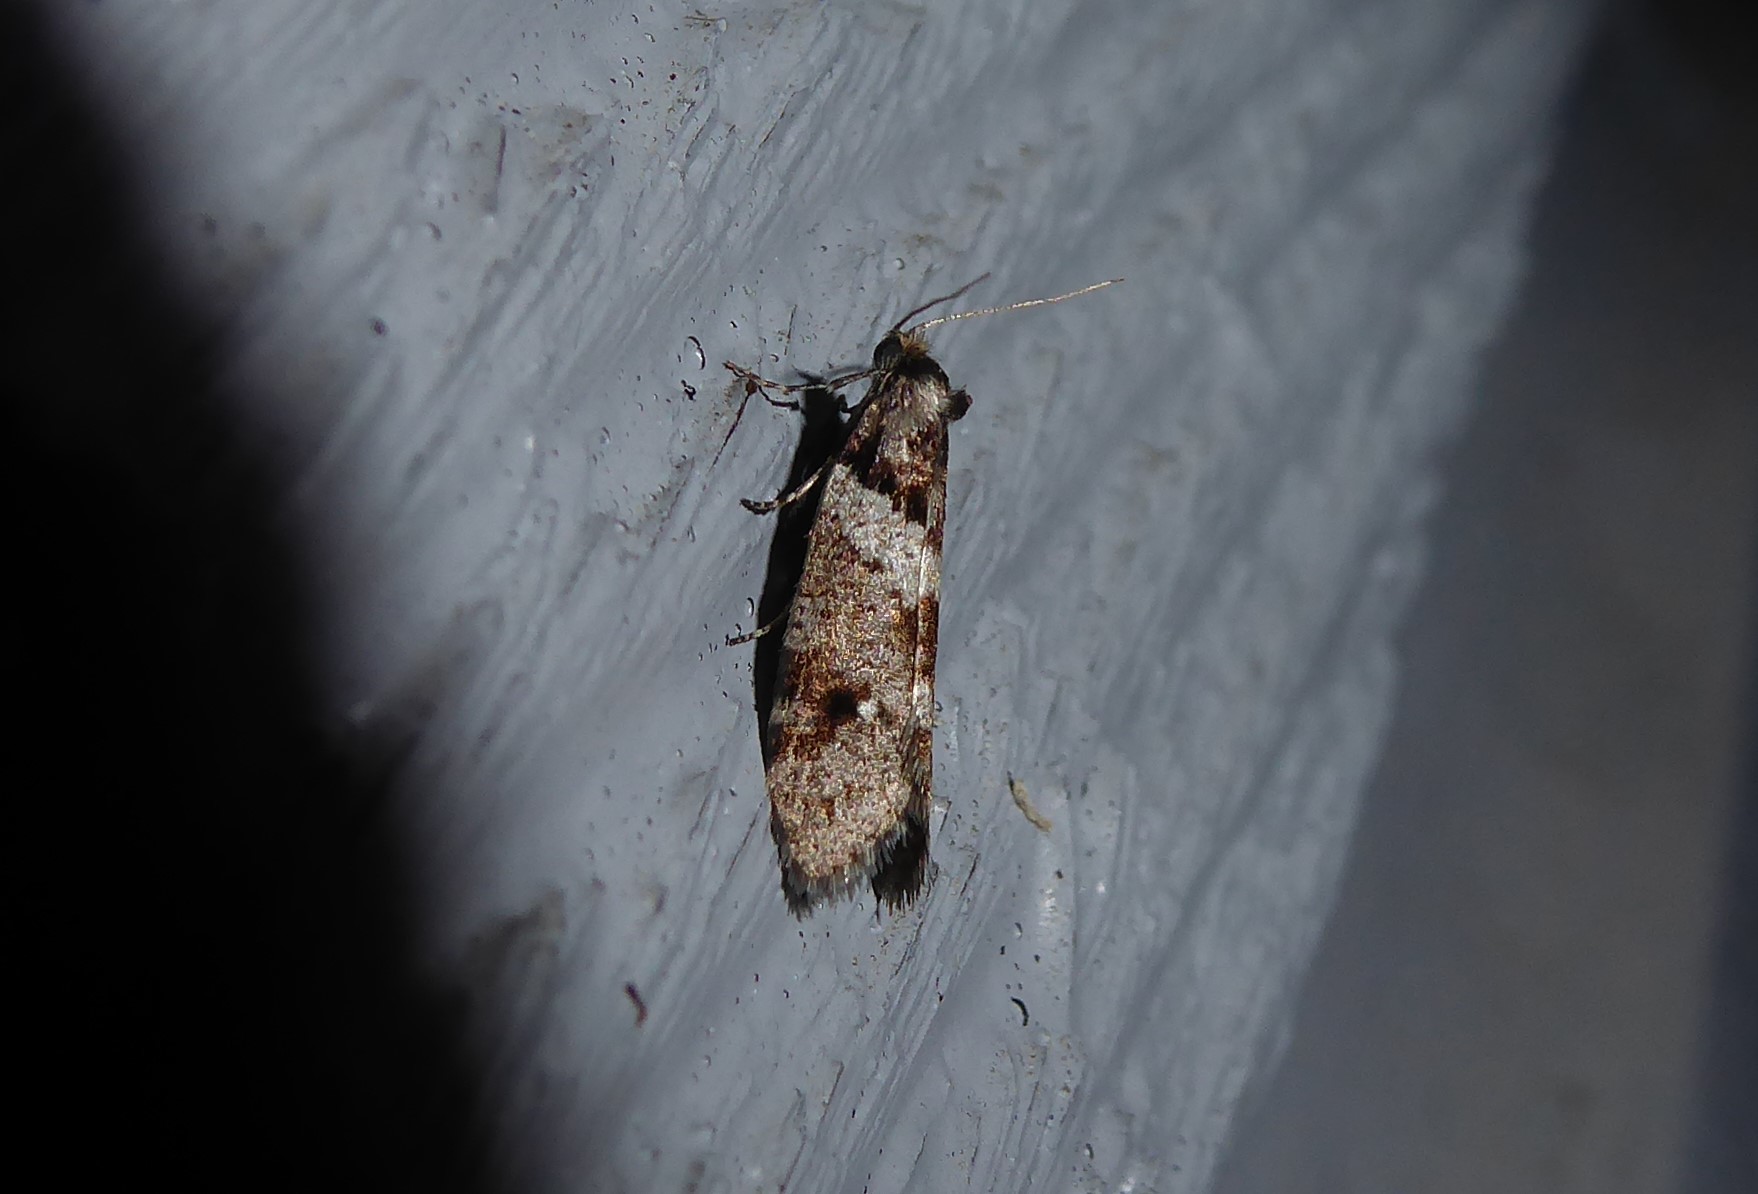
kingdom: Animalia
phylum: Arthropoda
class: Insecta
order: Lepidoptera
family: Psychidae
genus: Lepidoscia
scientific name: Lepidoscia heliochares
